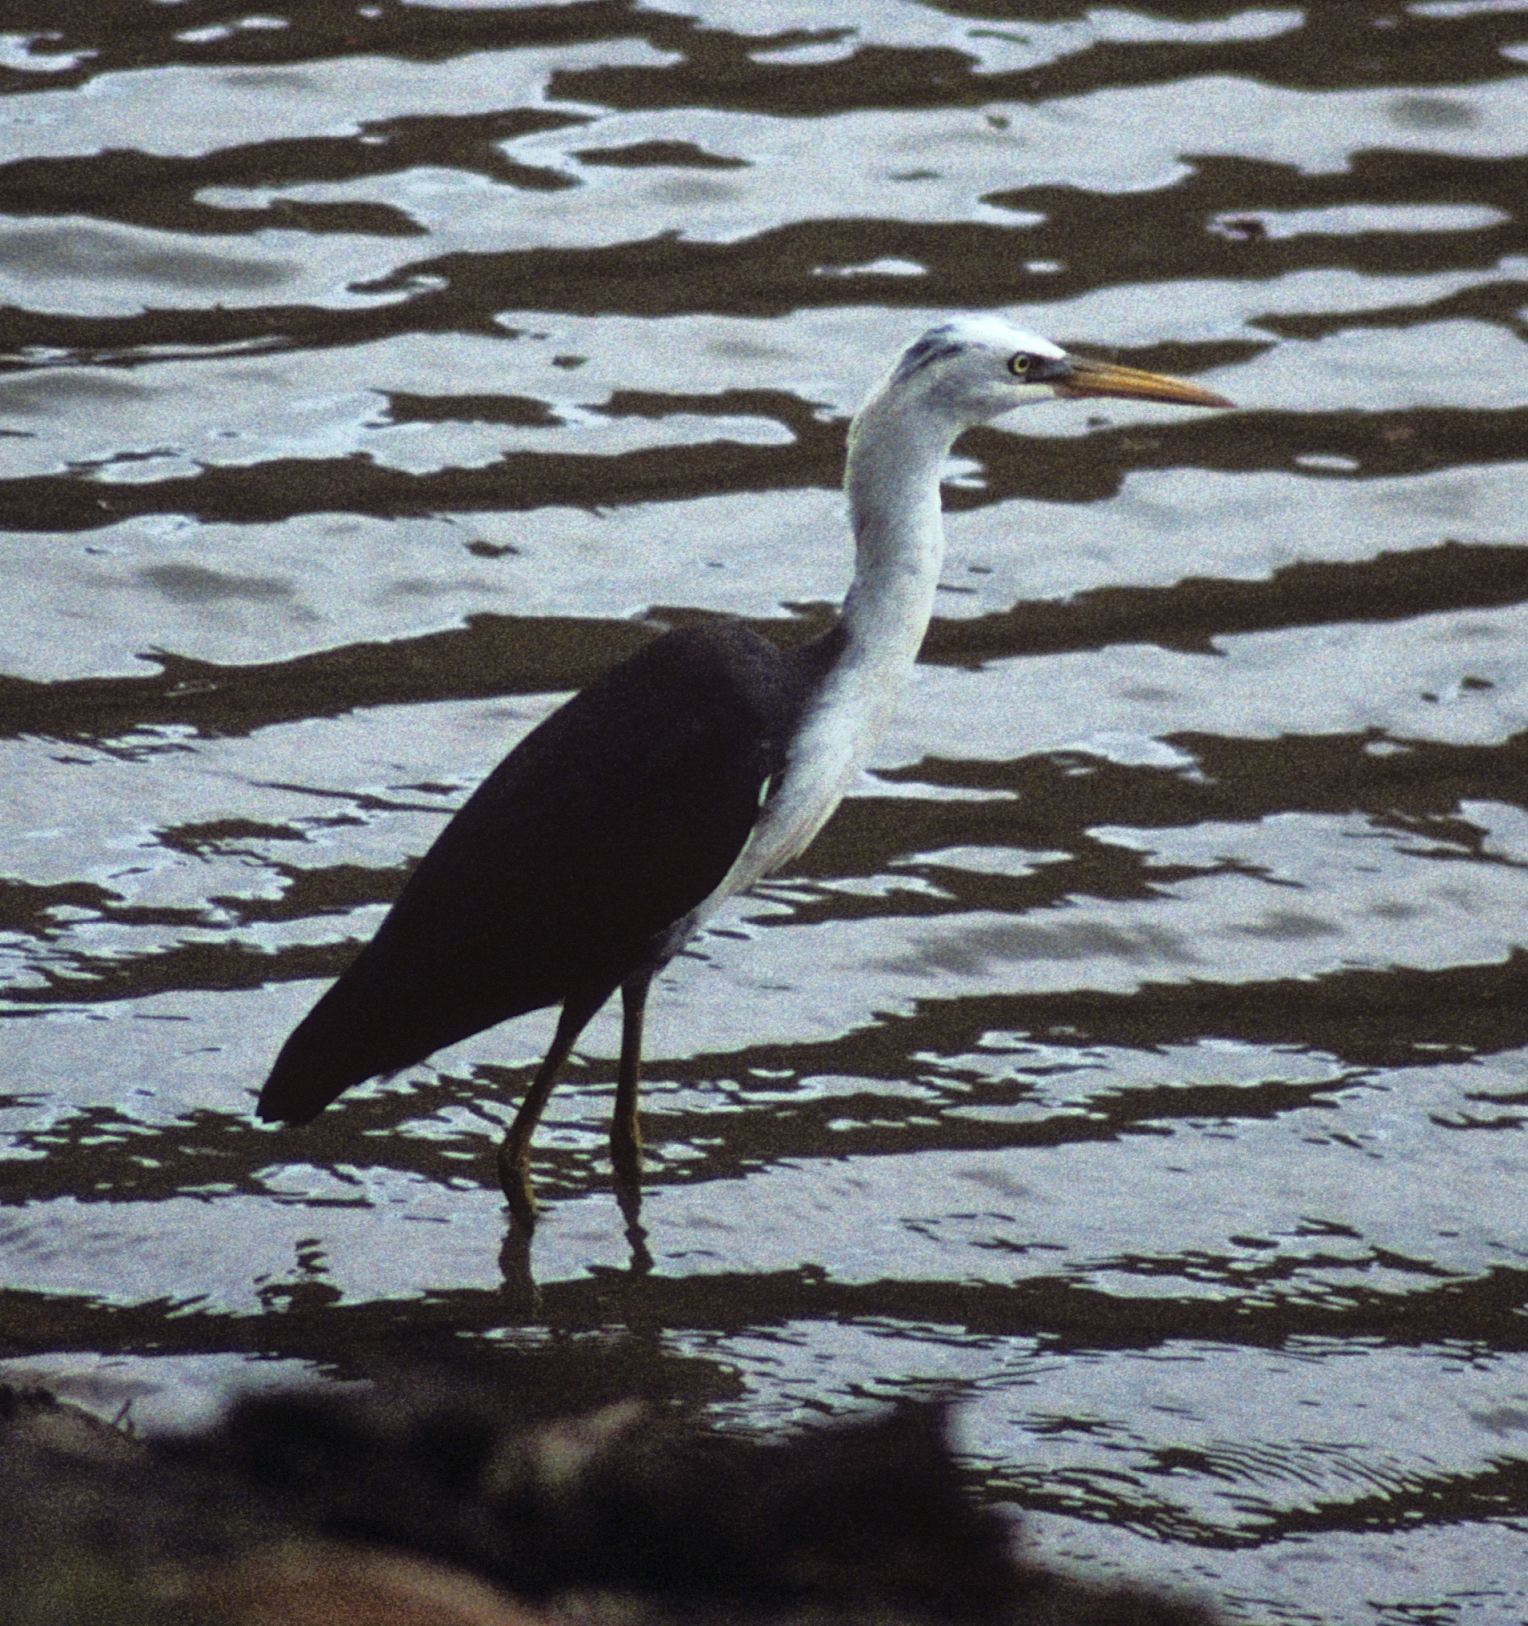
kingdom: Animalia
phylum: Chordata
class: Aves
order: Pelecaniformes
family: Ardeidae
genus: Egretta
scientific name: Egretta picata
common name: Pied heron
